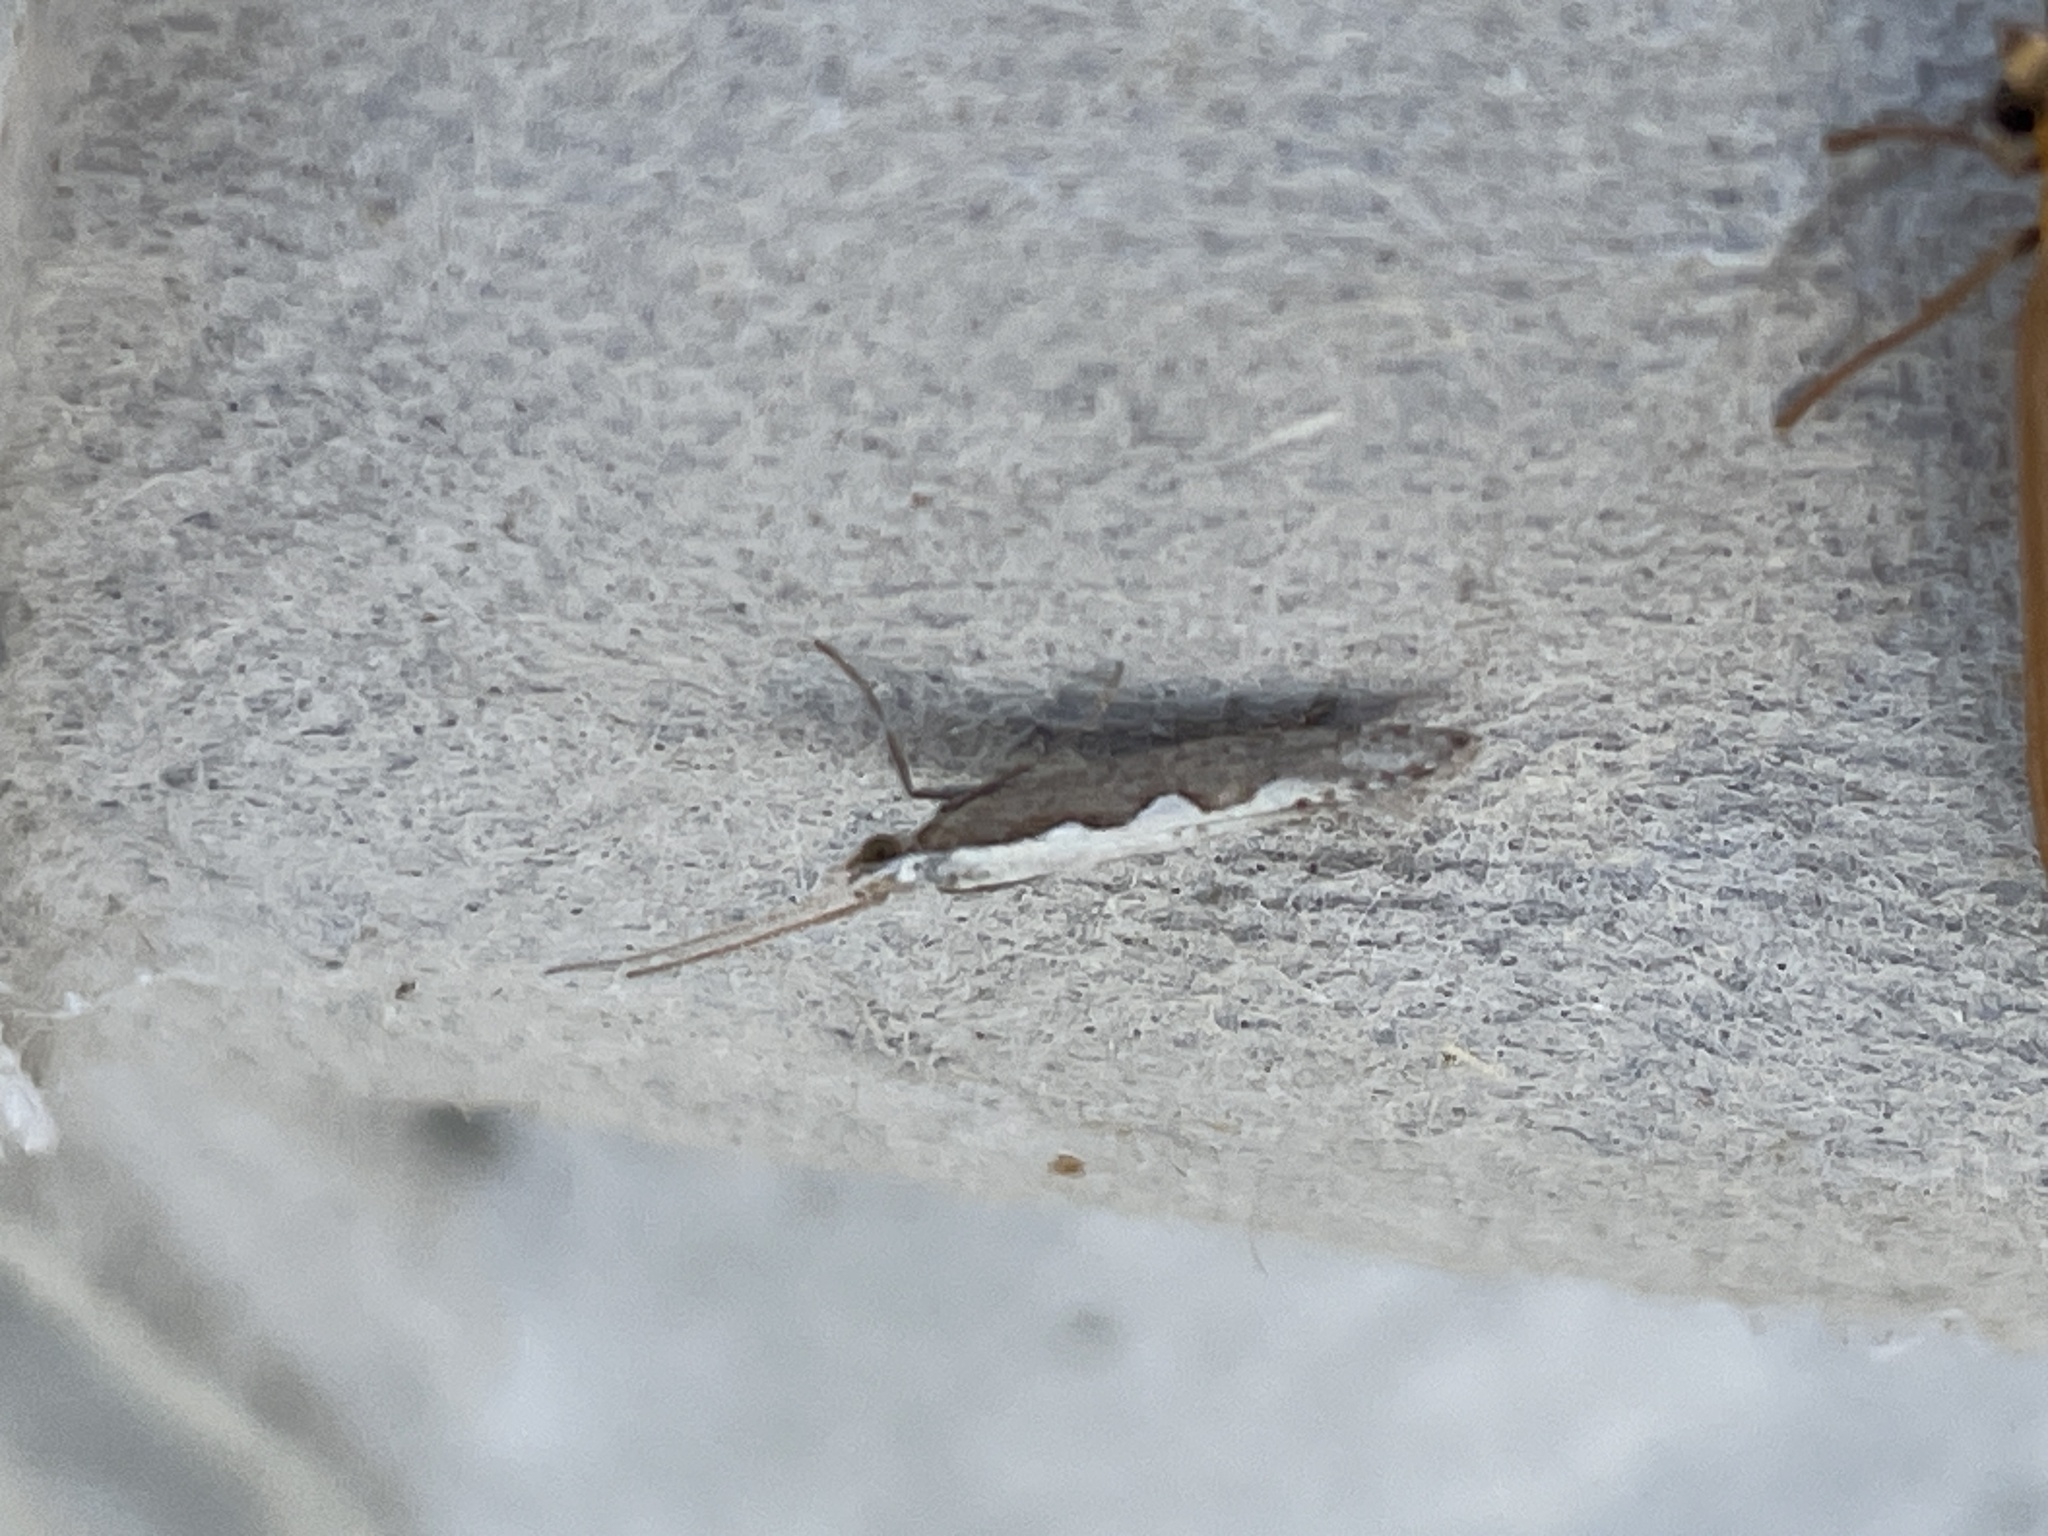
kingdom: Animalia
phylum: Arthropoda
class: Insecta
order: Lepidoptera
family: Plutellidae
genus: Plutella
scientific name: Plutella xylostella
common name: Diamond-back moth
